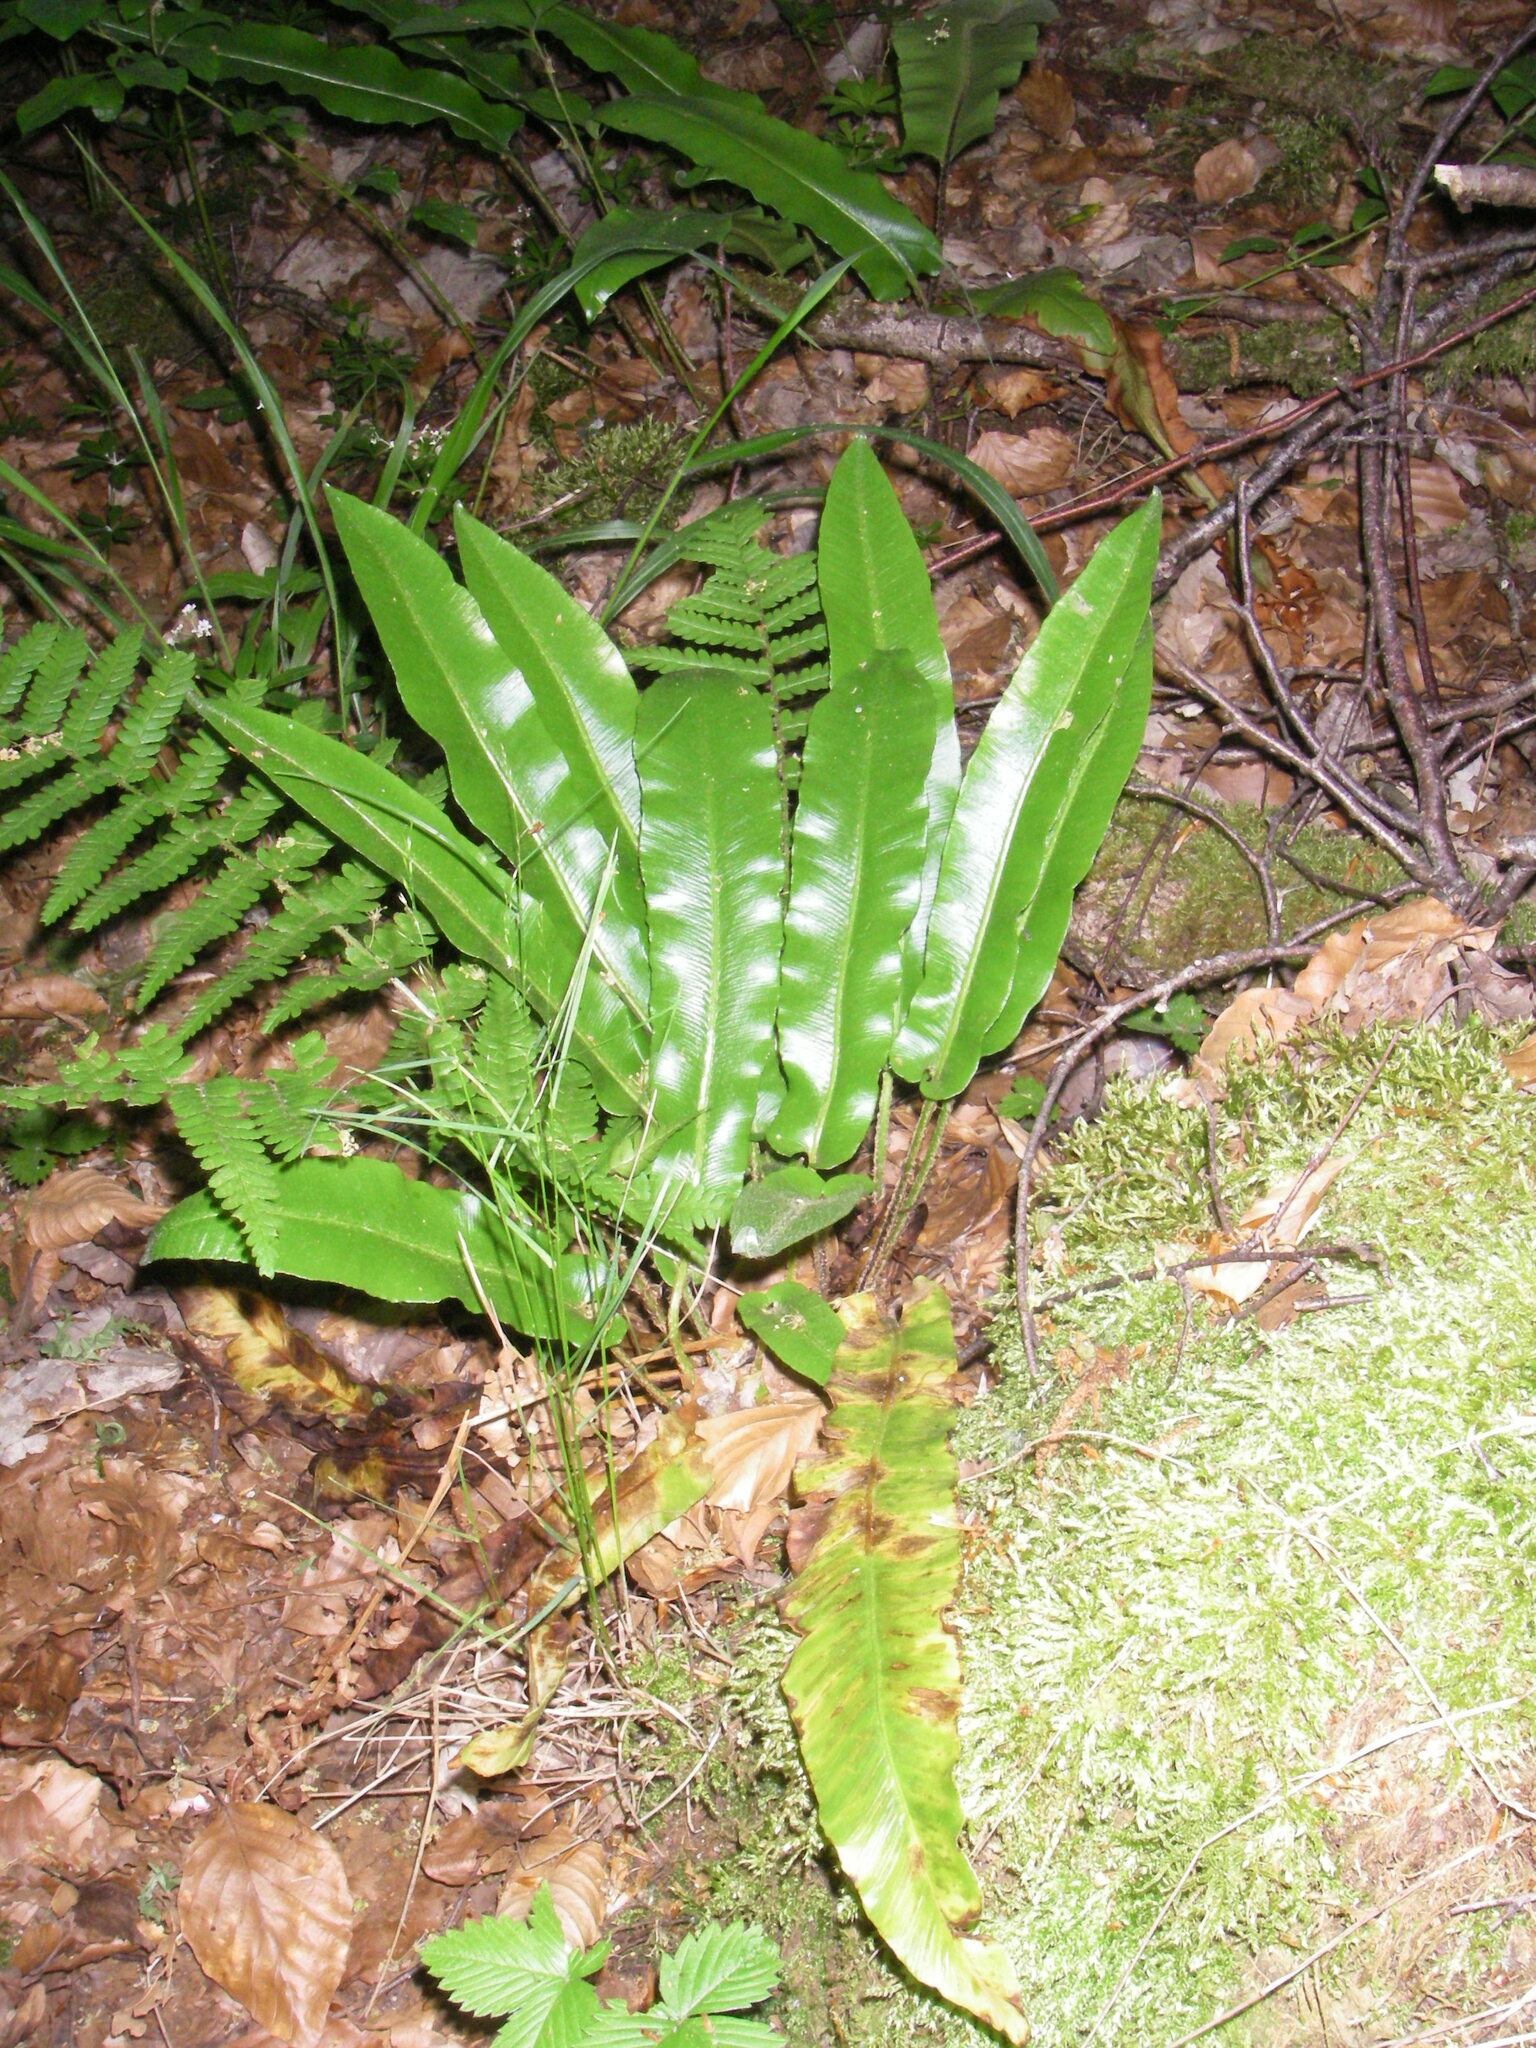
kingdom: Plantae
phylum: Tracheophyta
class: Polypodiopsida
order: Polypodiales
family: Aspleniaceae
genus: Asplenium
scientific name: Asplenium scolopendrium
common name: Hart's-tongue fern
